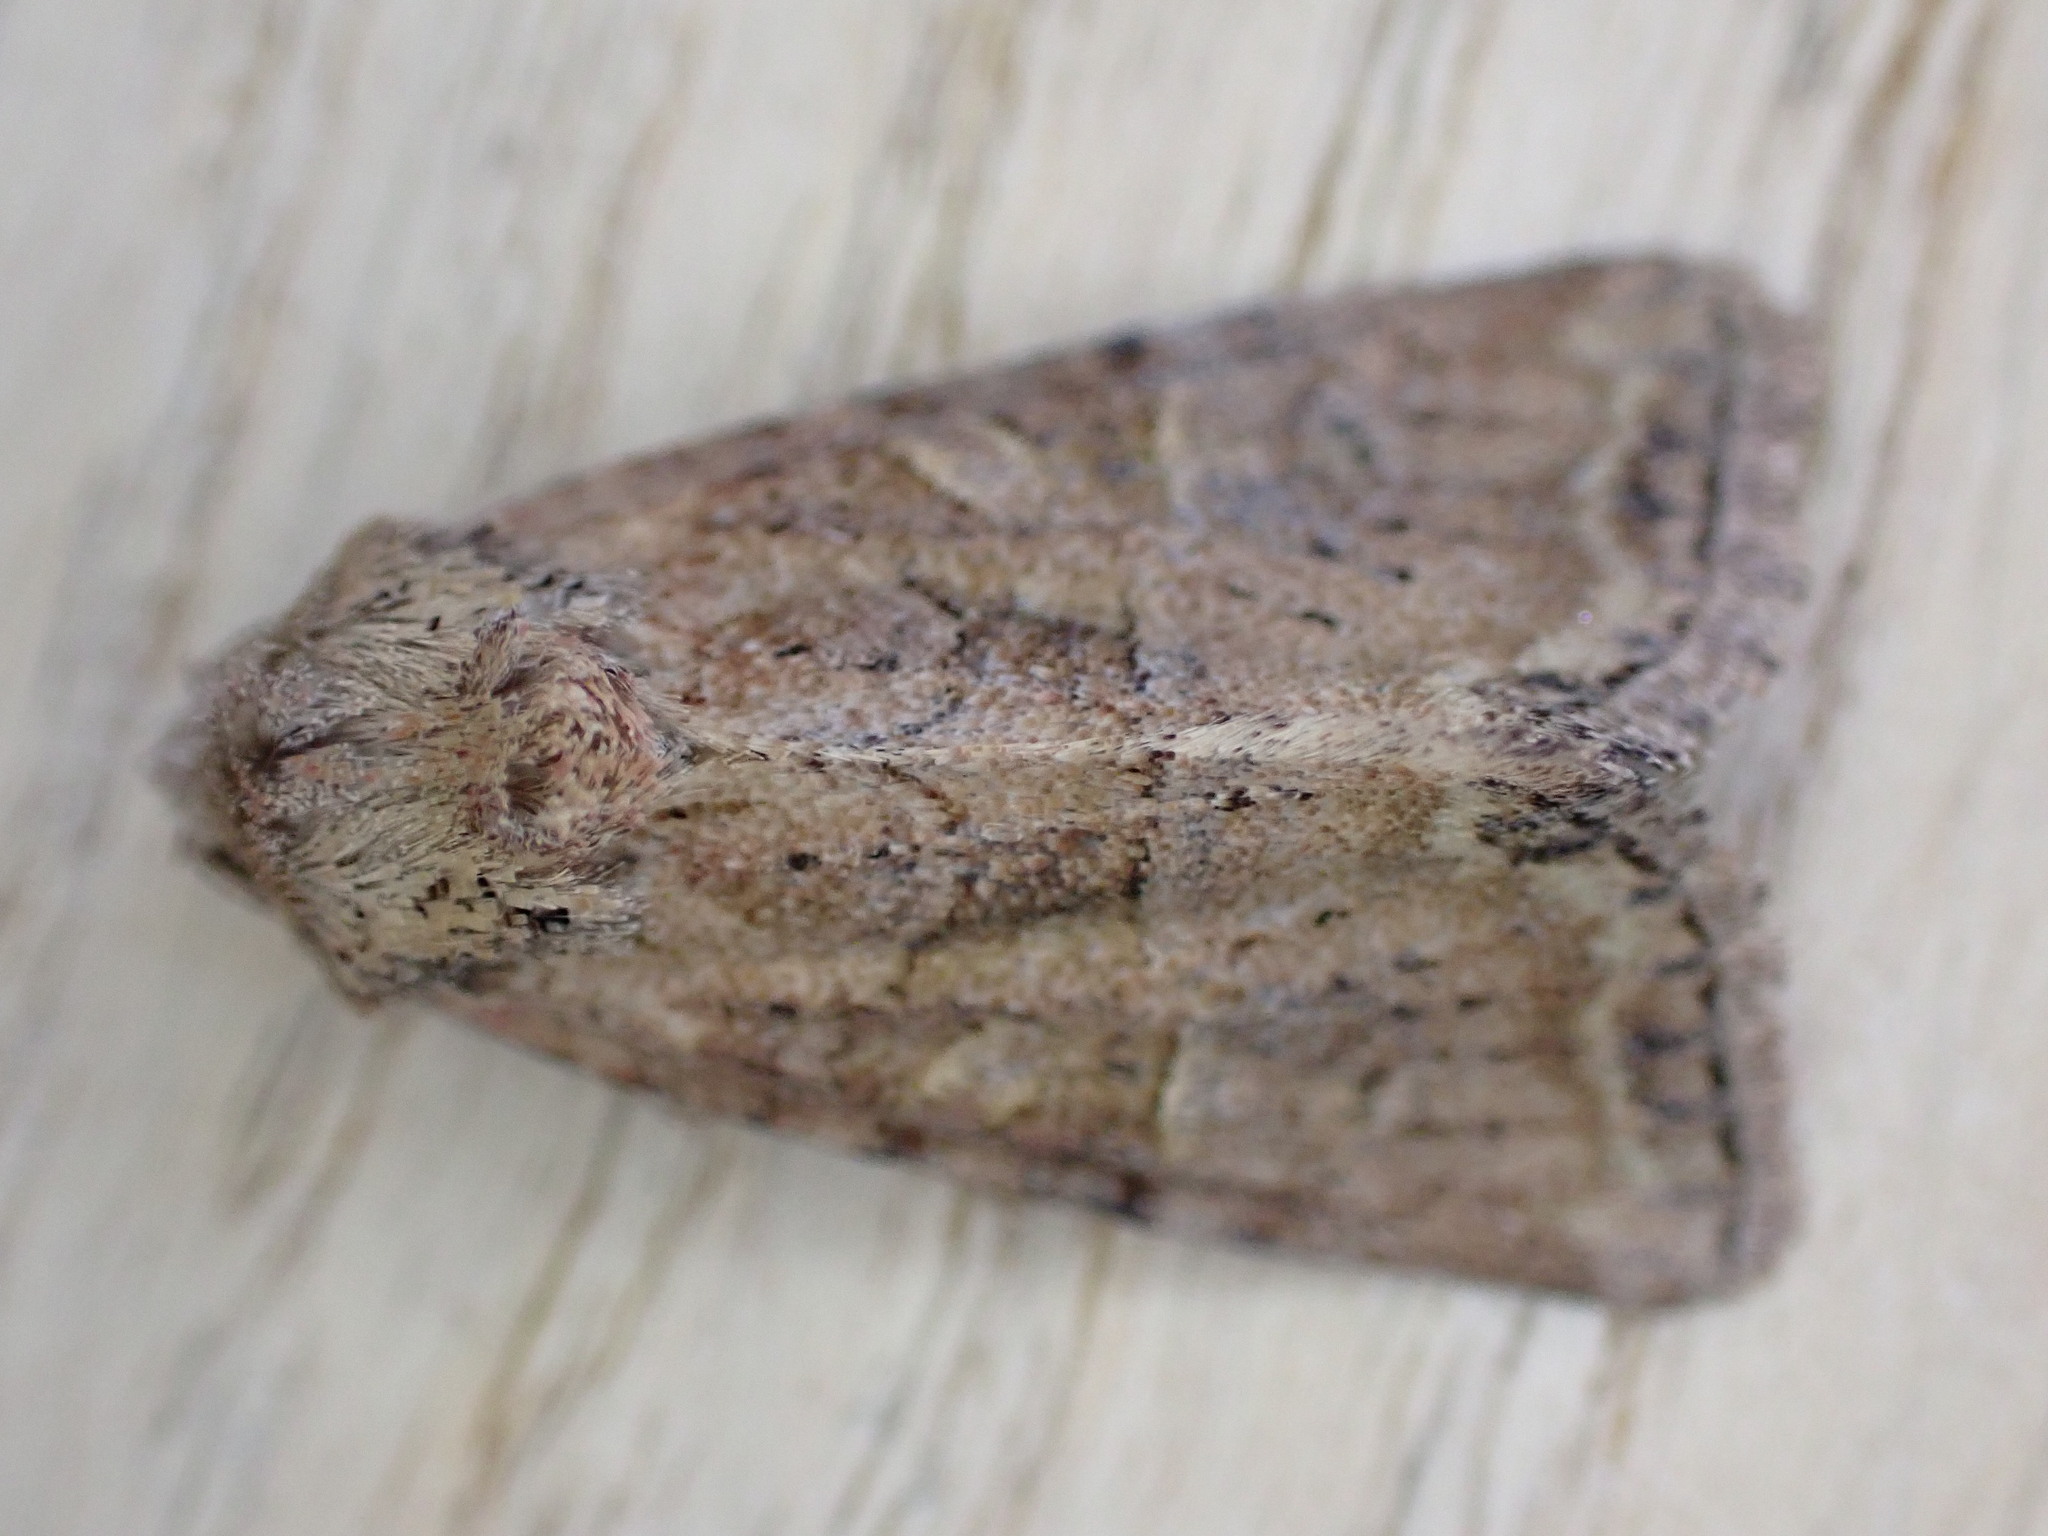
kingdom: Animalia
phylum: Arthropoda
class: Insecta
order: Lepidoptera
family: Noctuidae
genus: Mesoligia
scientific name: Mesoligia furuncula
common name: Cloaked minor
